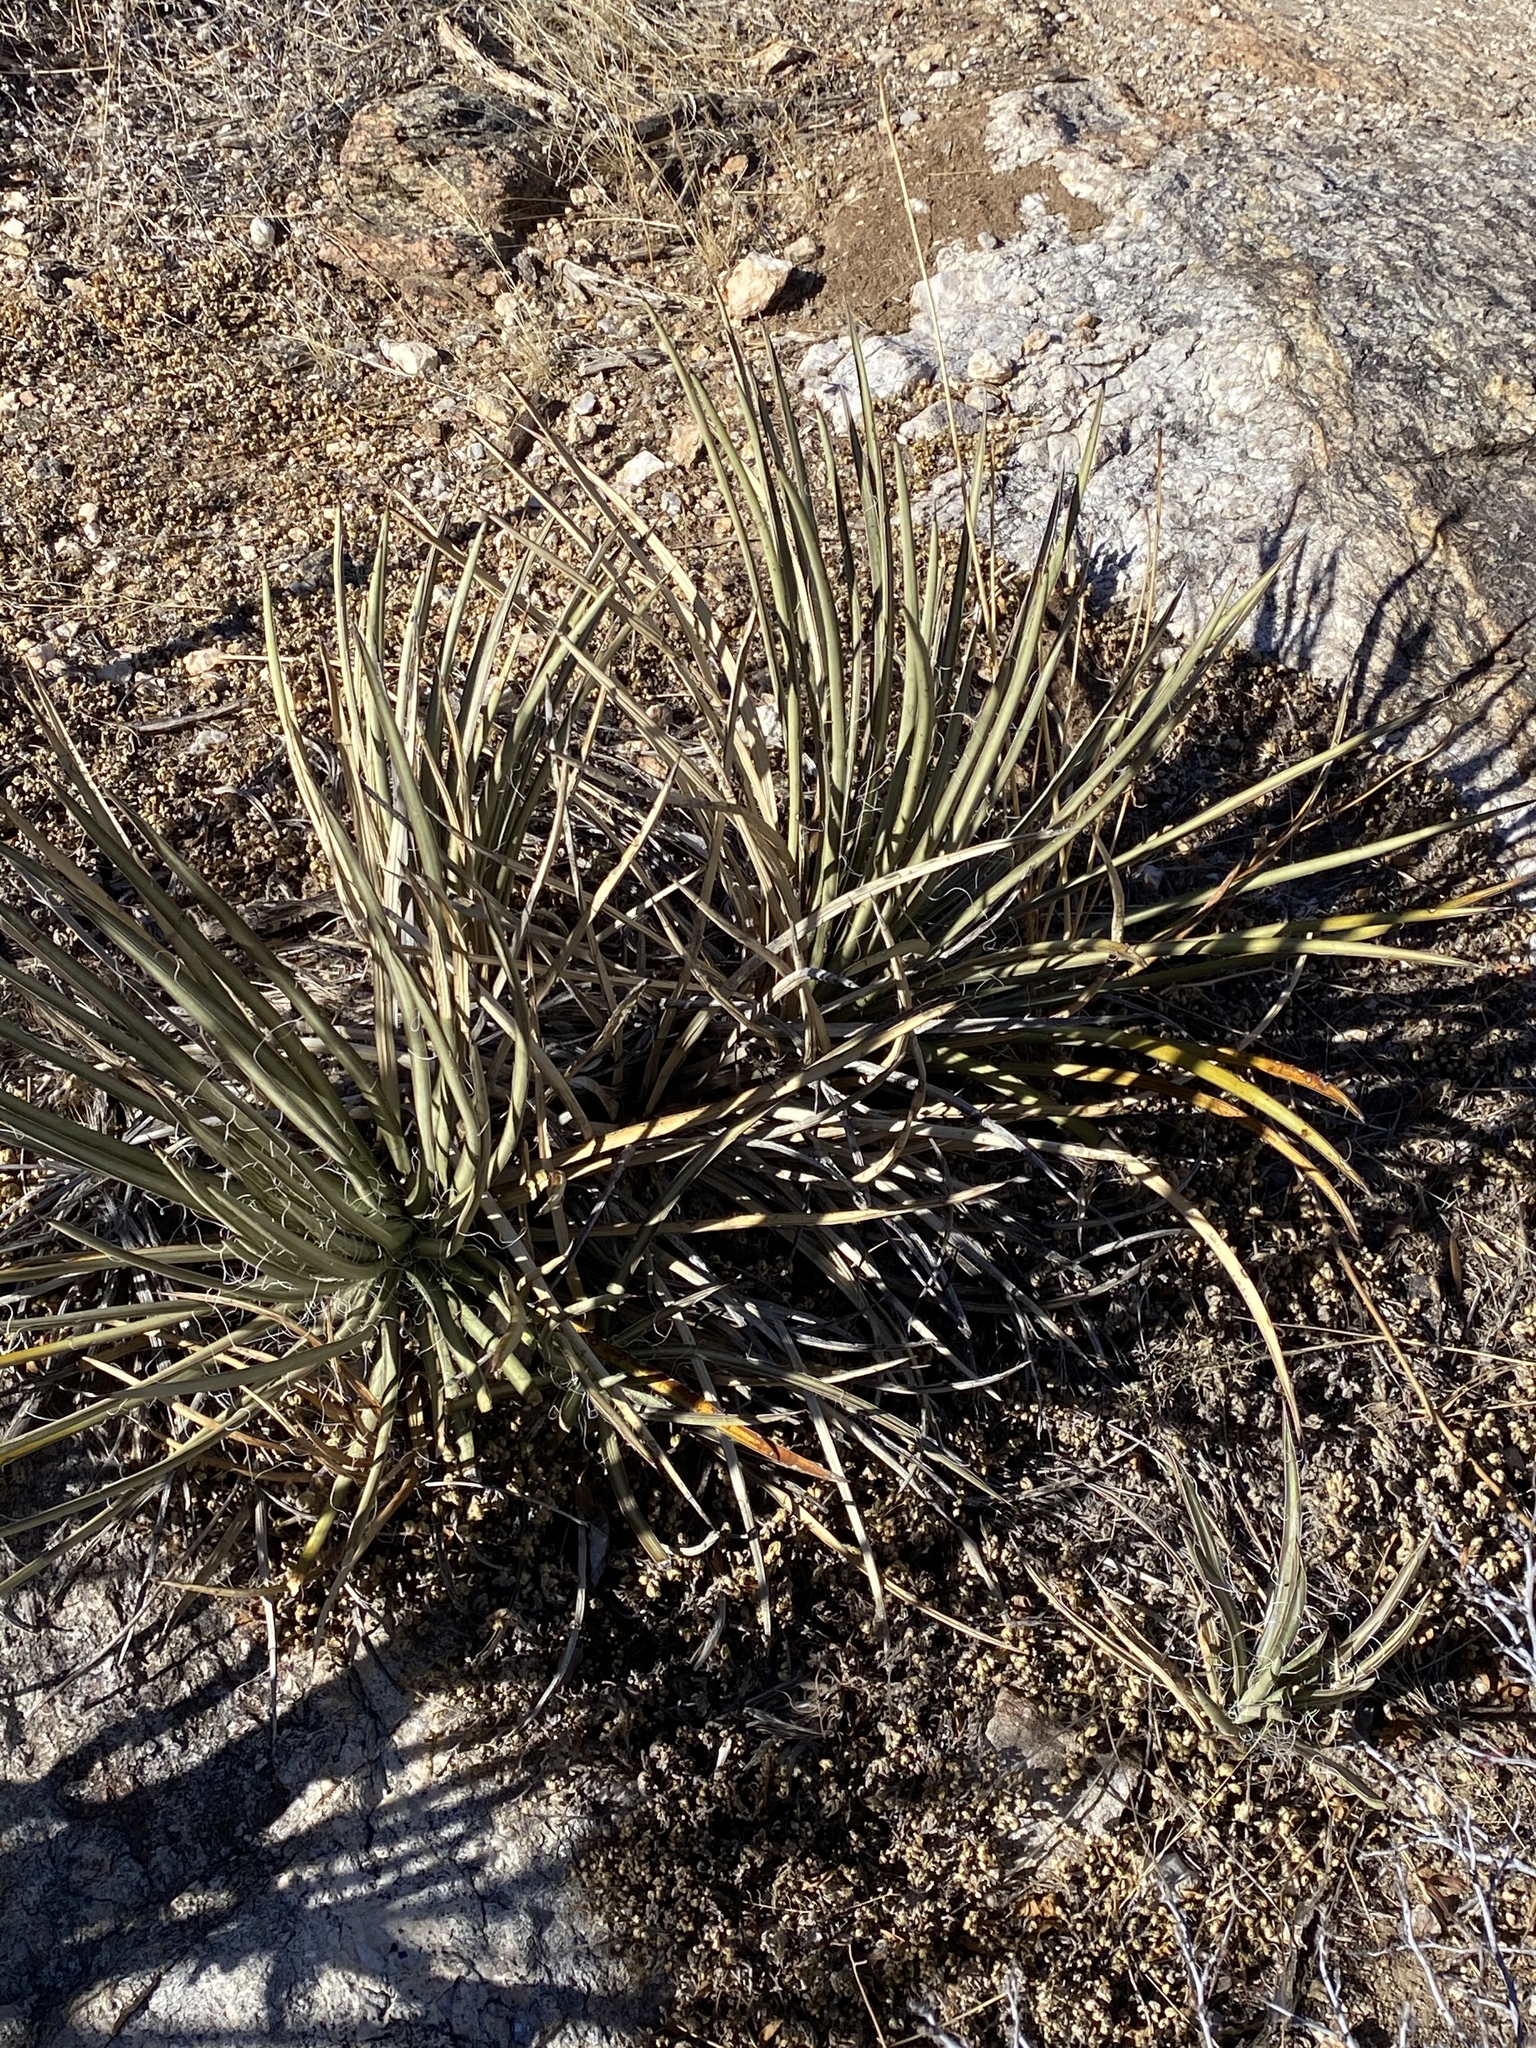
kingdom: Plantae
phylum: Tracheophyta
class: Liliopsida
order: Asparagales
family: Asparagaceae
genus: Agave
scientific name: Agave schottii
